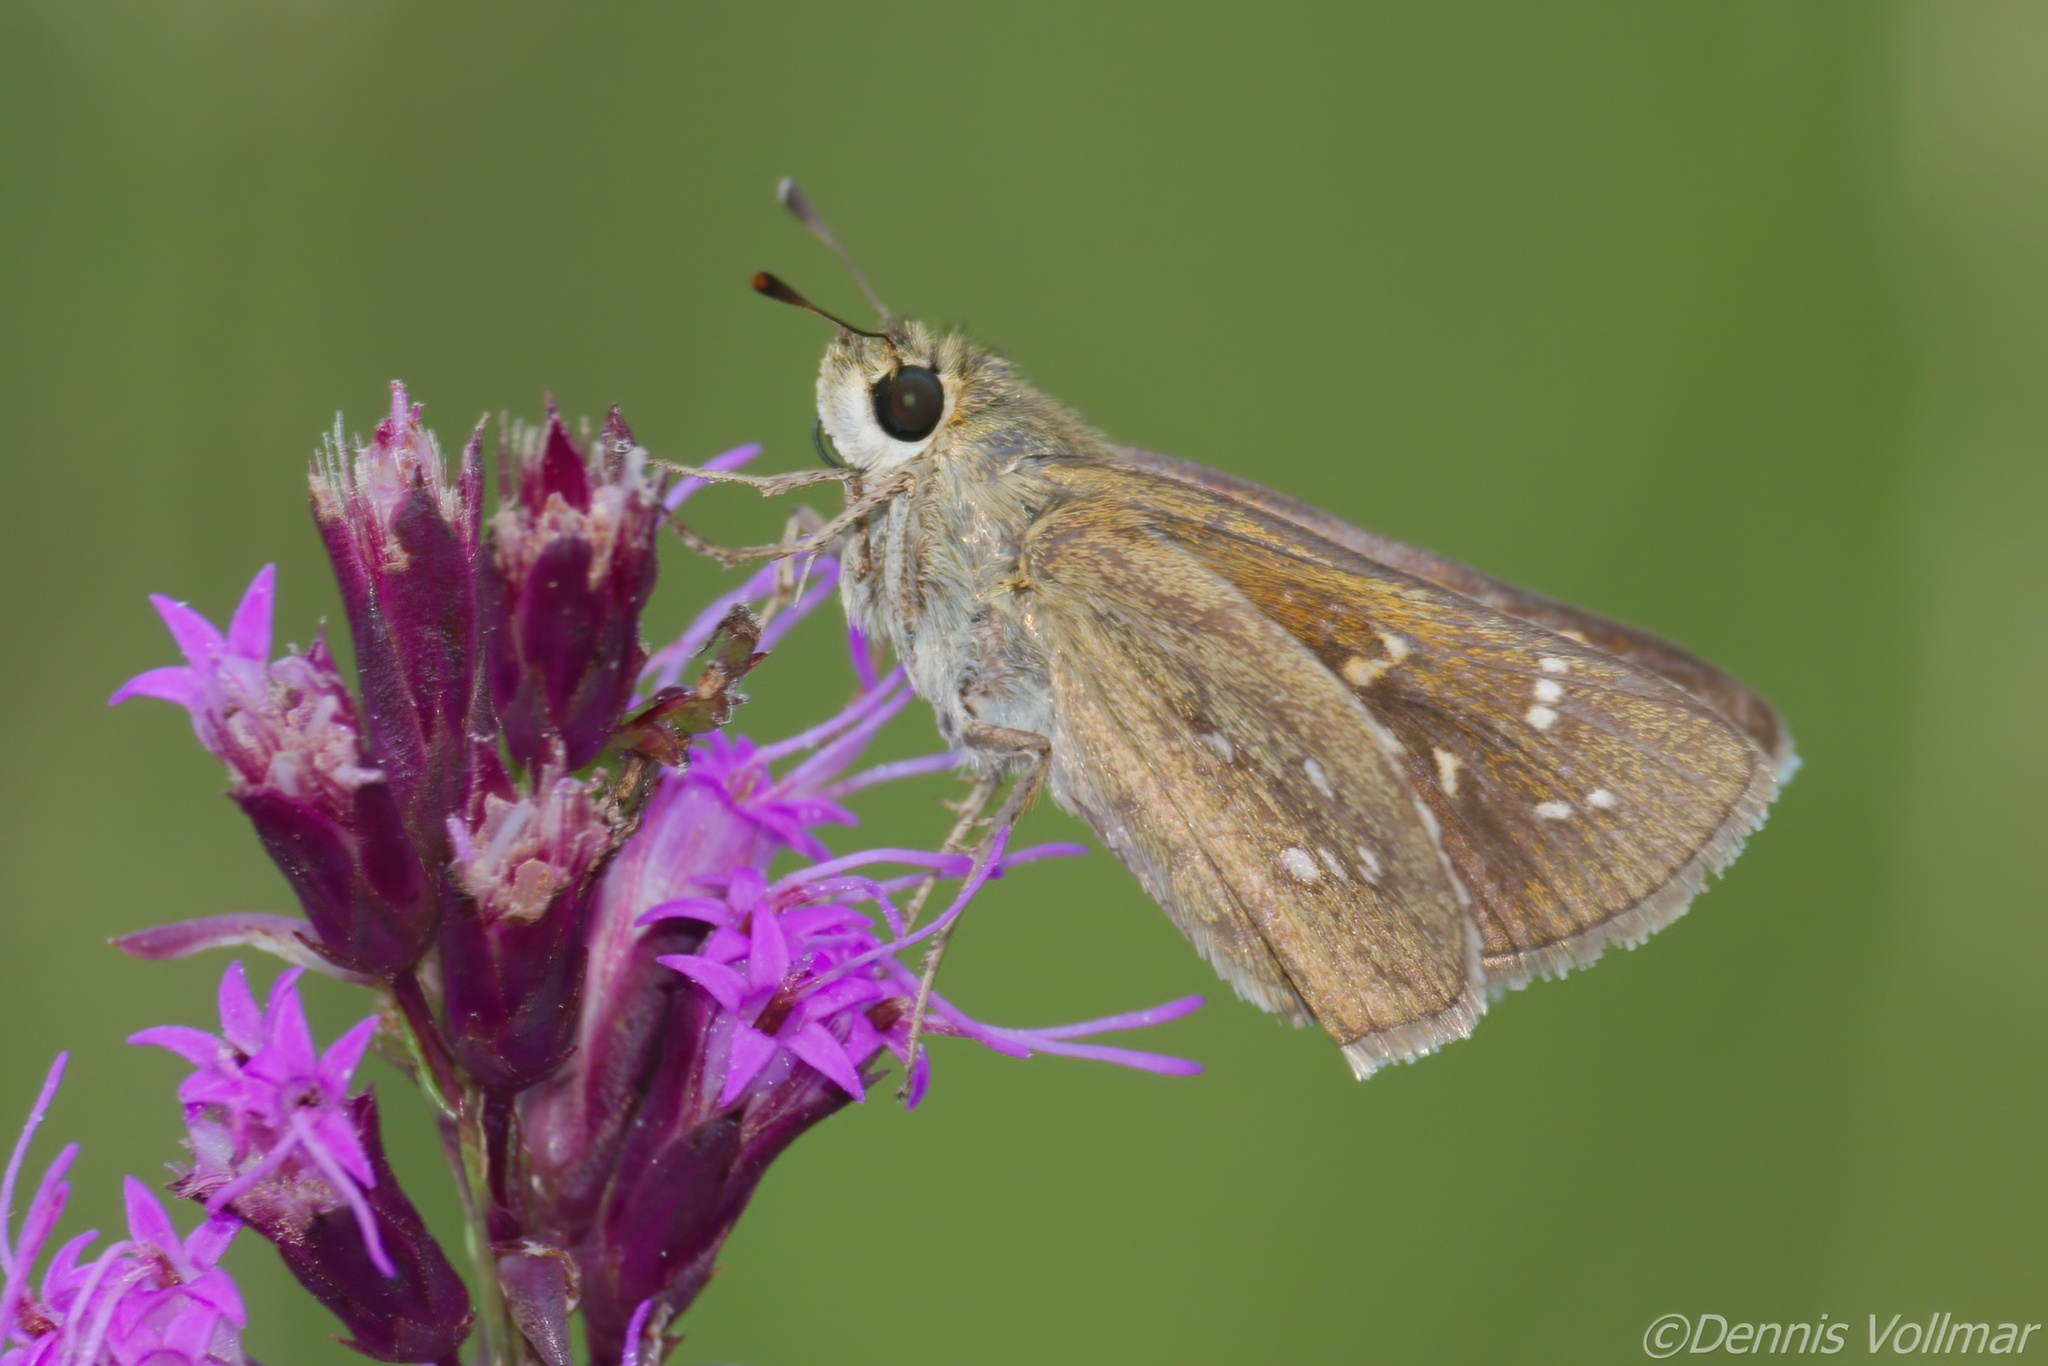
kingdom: Animalia
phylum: Arthropoda
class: Insecta
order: Lepidoptera
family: Hesperiidae
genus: Hesperia
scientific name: Hesperia attalus
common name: Dotted skipper
